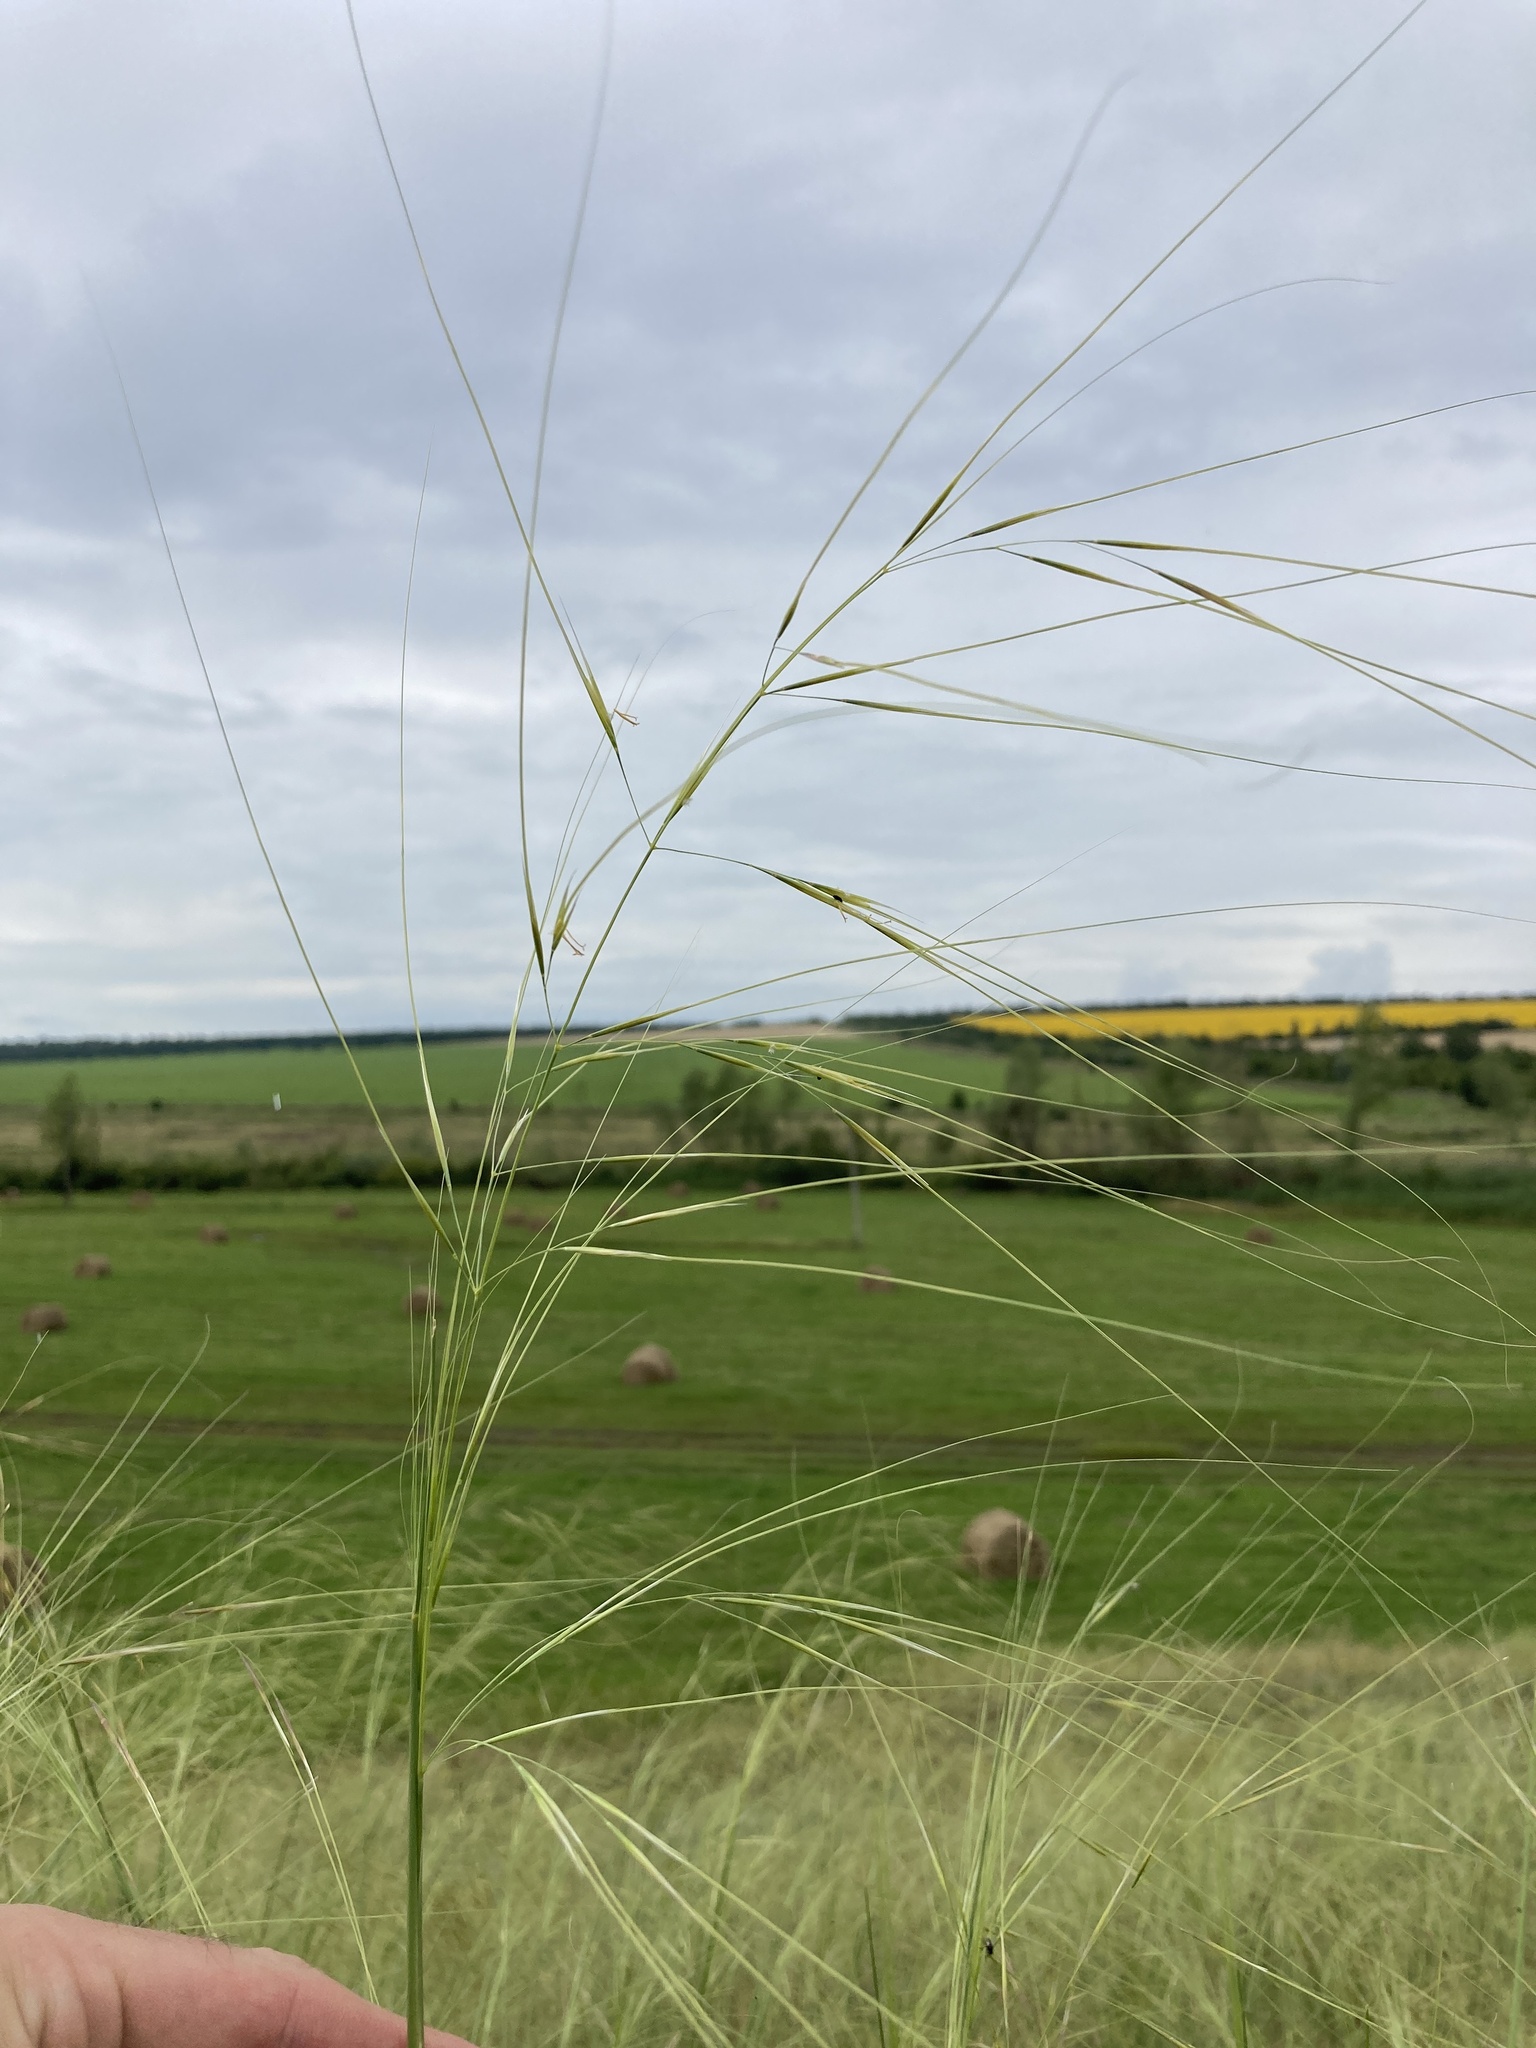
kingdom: Plantae
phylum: Tracheophyta
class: Liliopsida
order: Poales
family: Poaceae
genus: Stipa
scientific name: Stipa capillata
